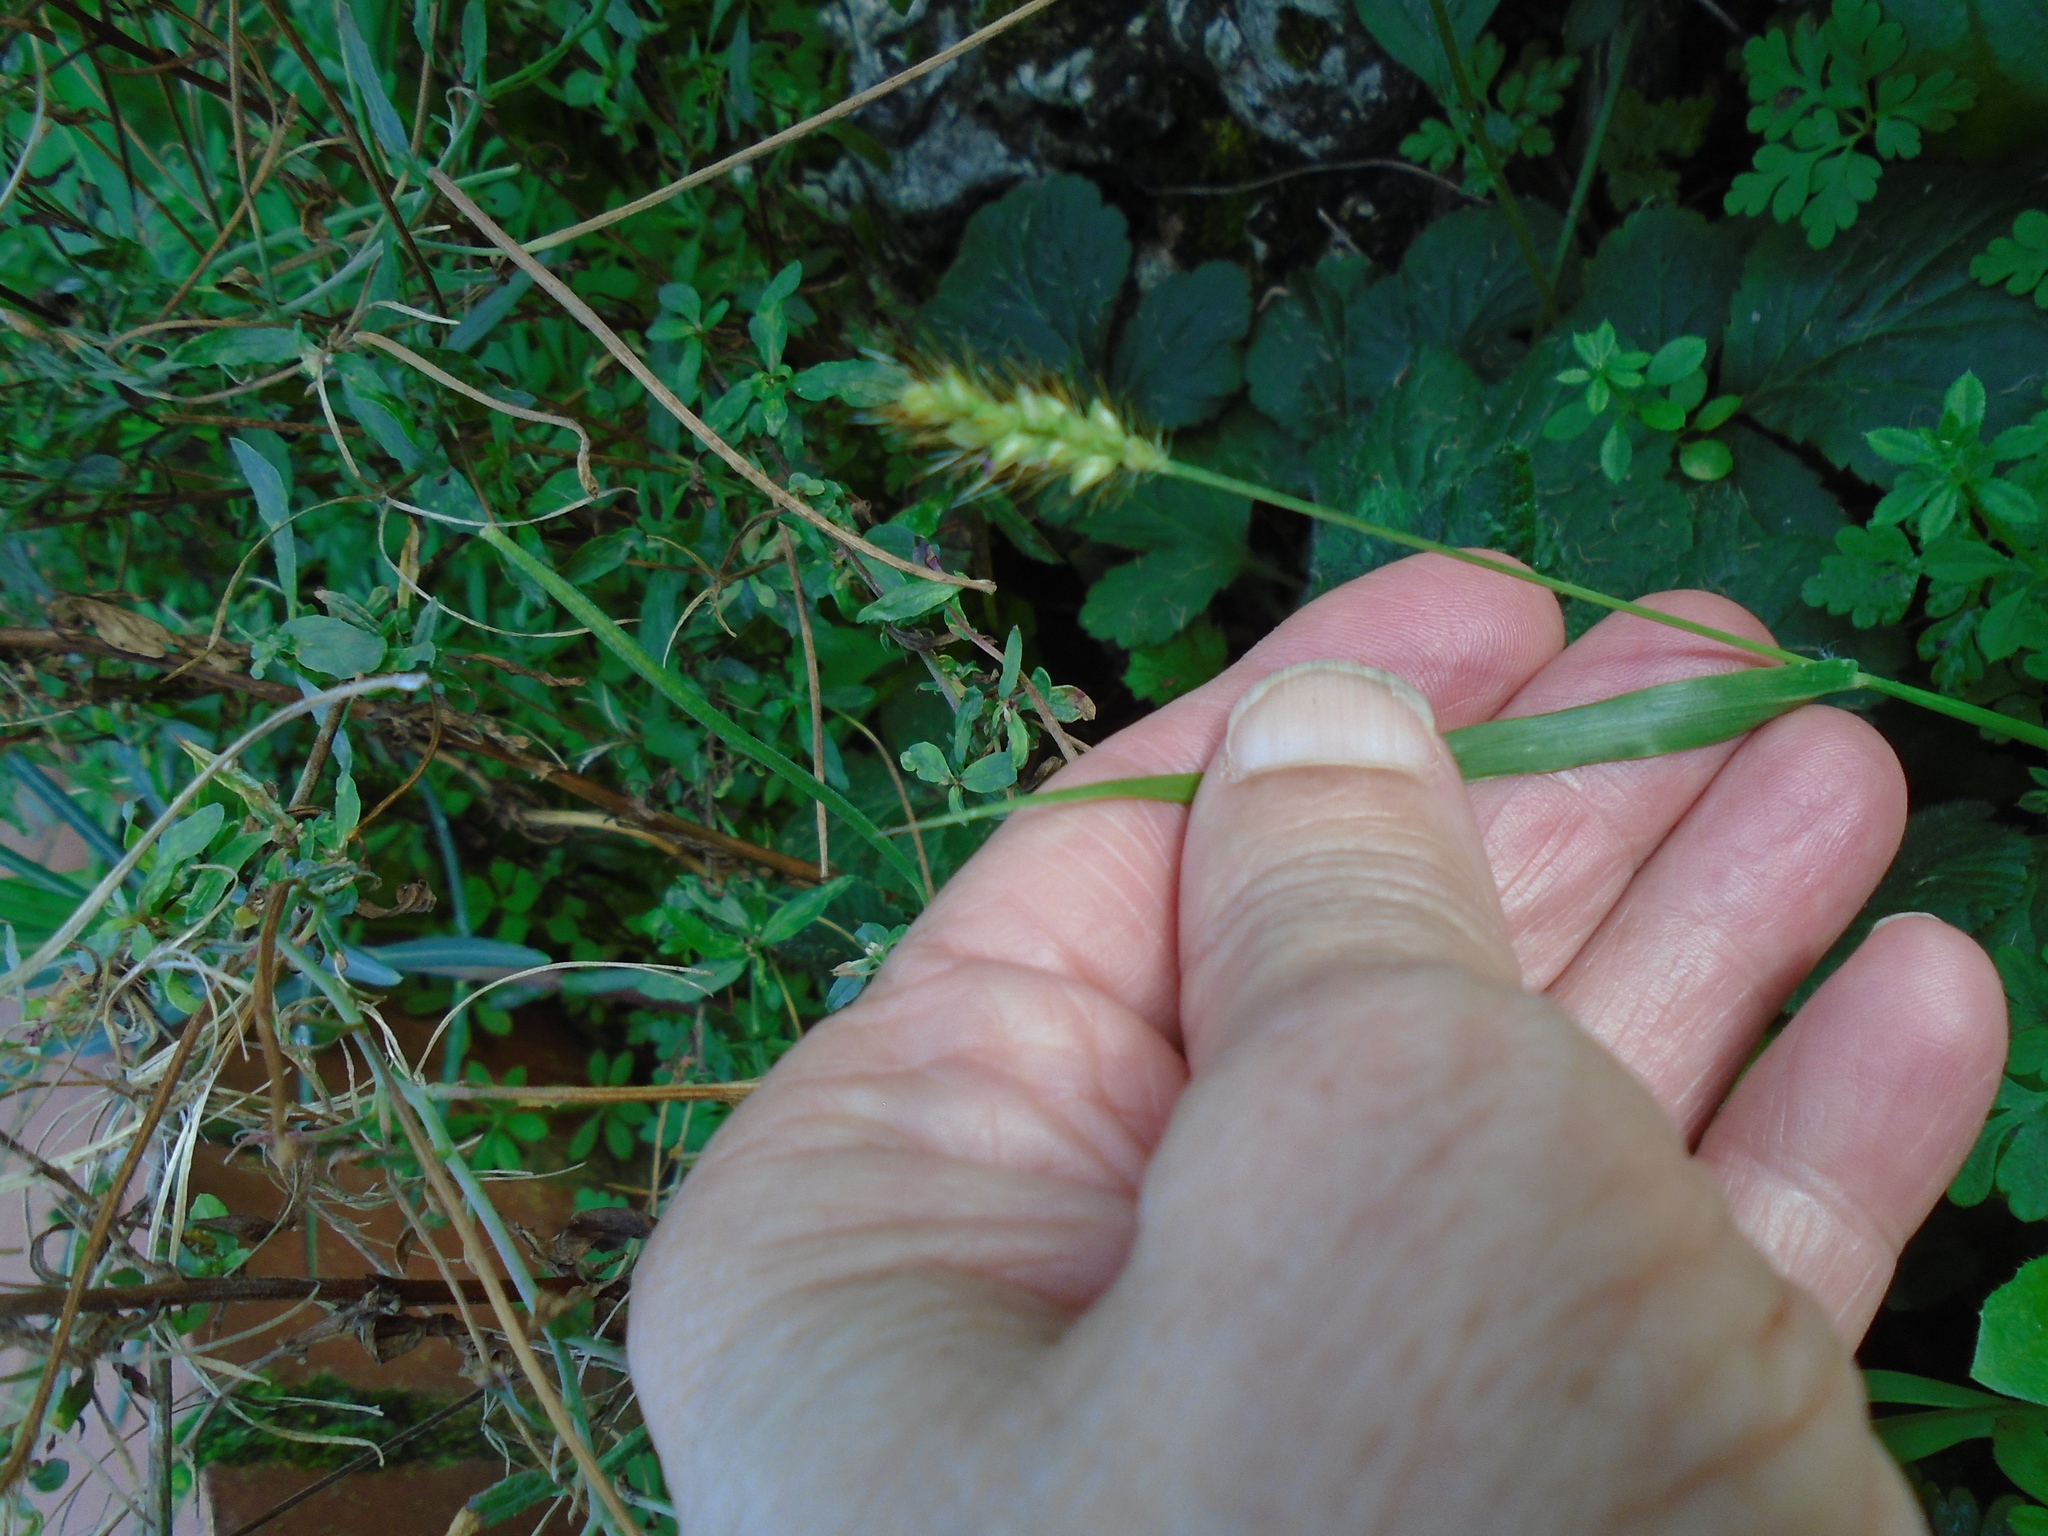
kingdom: Animalia
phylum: Arthropoda
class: Insecta
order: Coleoptera
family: Coccinellidae
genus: Harmonia
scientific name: Harmonia axyridis
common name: Harlequin ladybird
